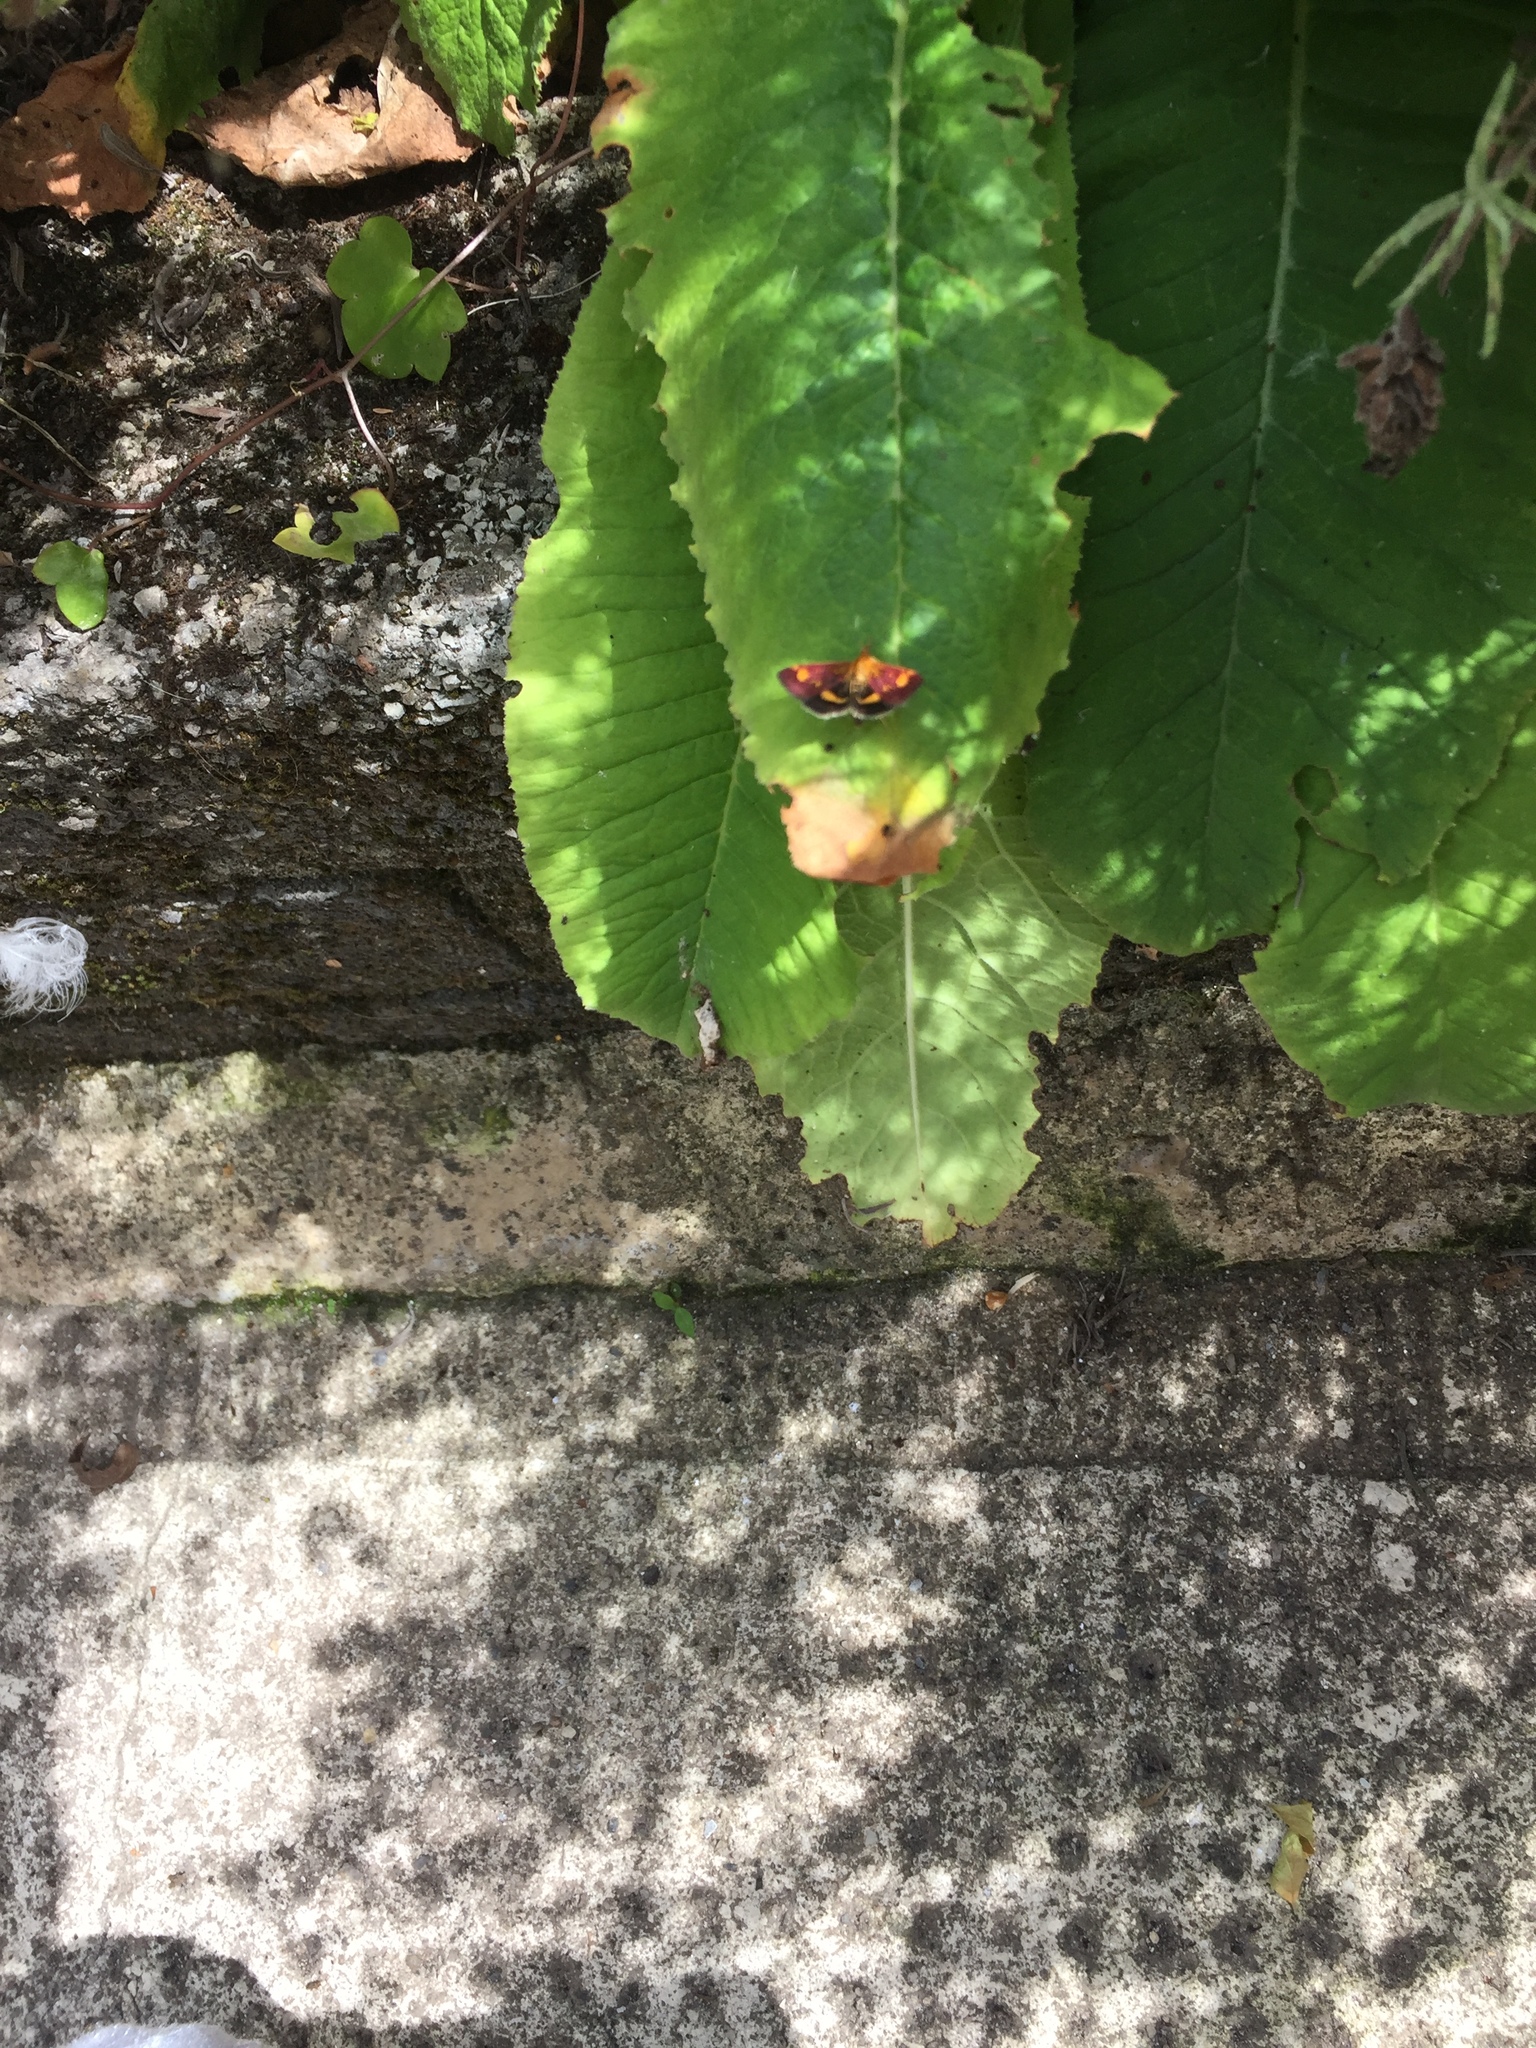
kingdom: Animalia
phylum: Arthropoda
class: Insecta
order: Lepidoptera
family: Crambidae
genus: Pyrausta
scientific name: Pyrausta aurata
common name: Small purple & gold
